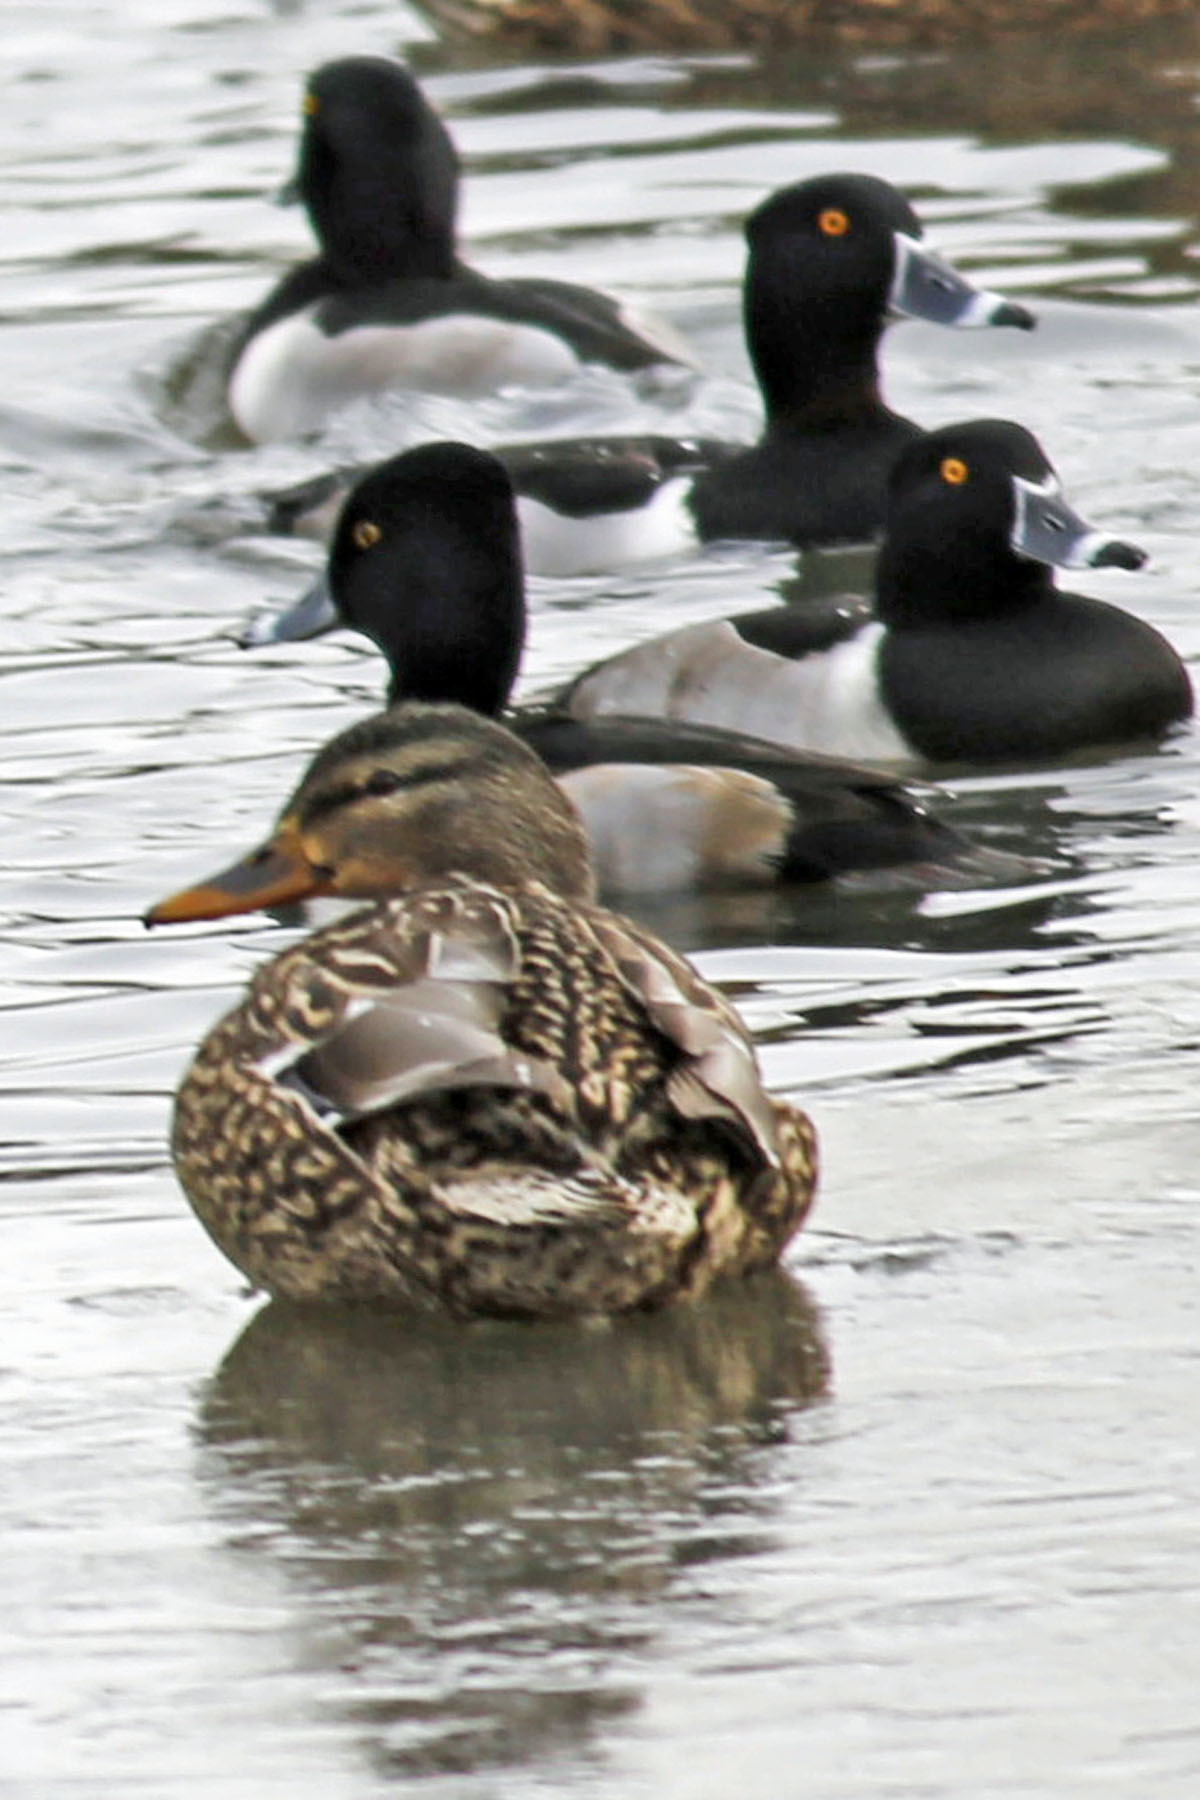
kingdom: Animalia
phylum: Chordata
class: Aves
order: Anseriformes
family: Anatidae
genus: Anas
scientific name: Anas platyrhynchos
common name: Mallard
